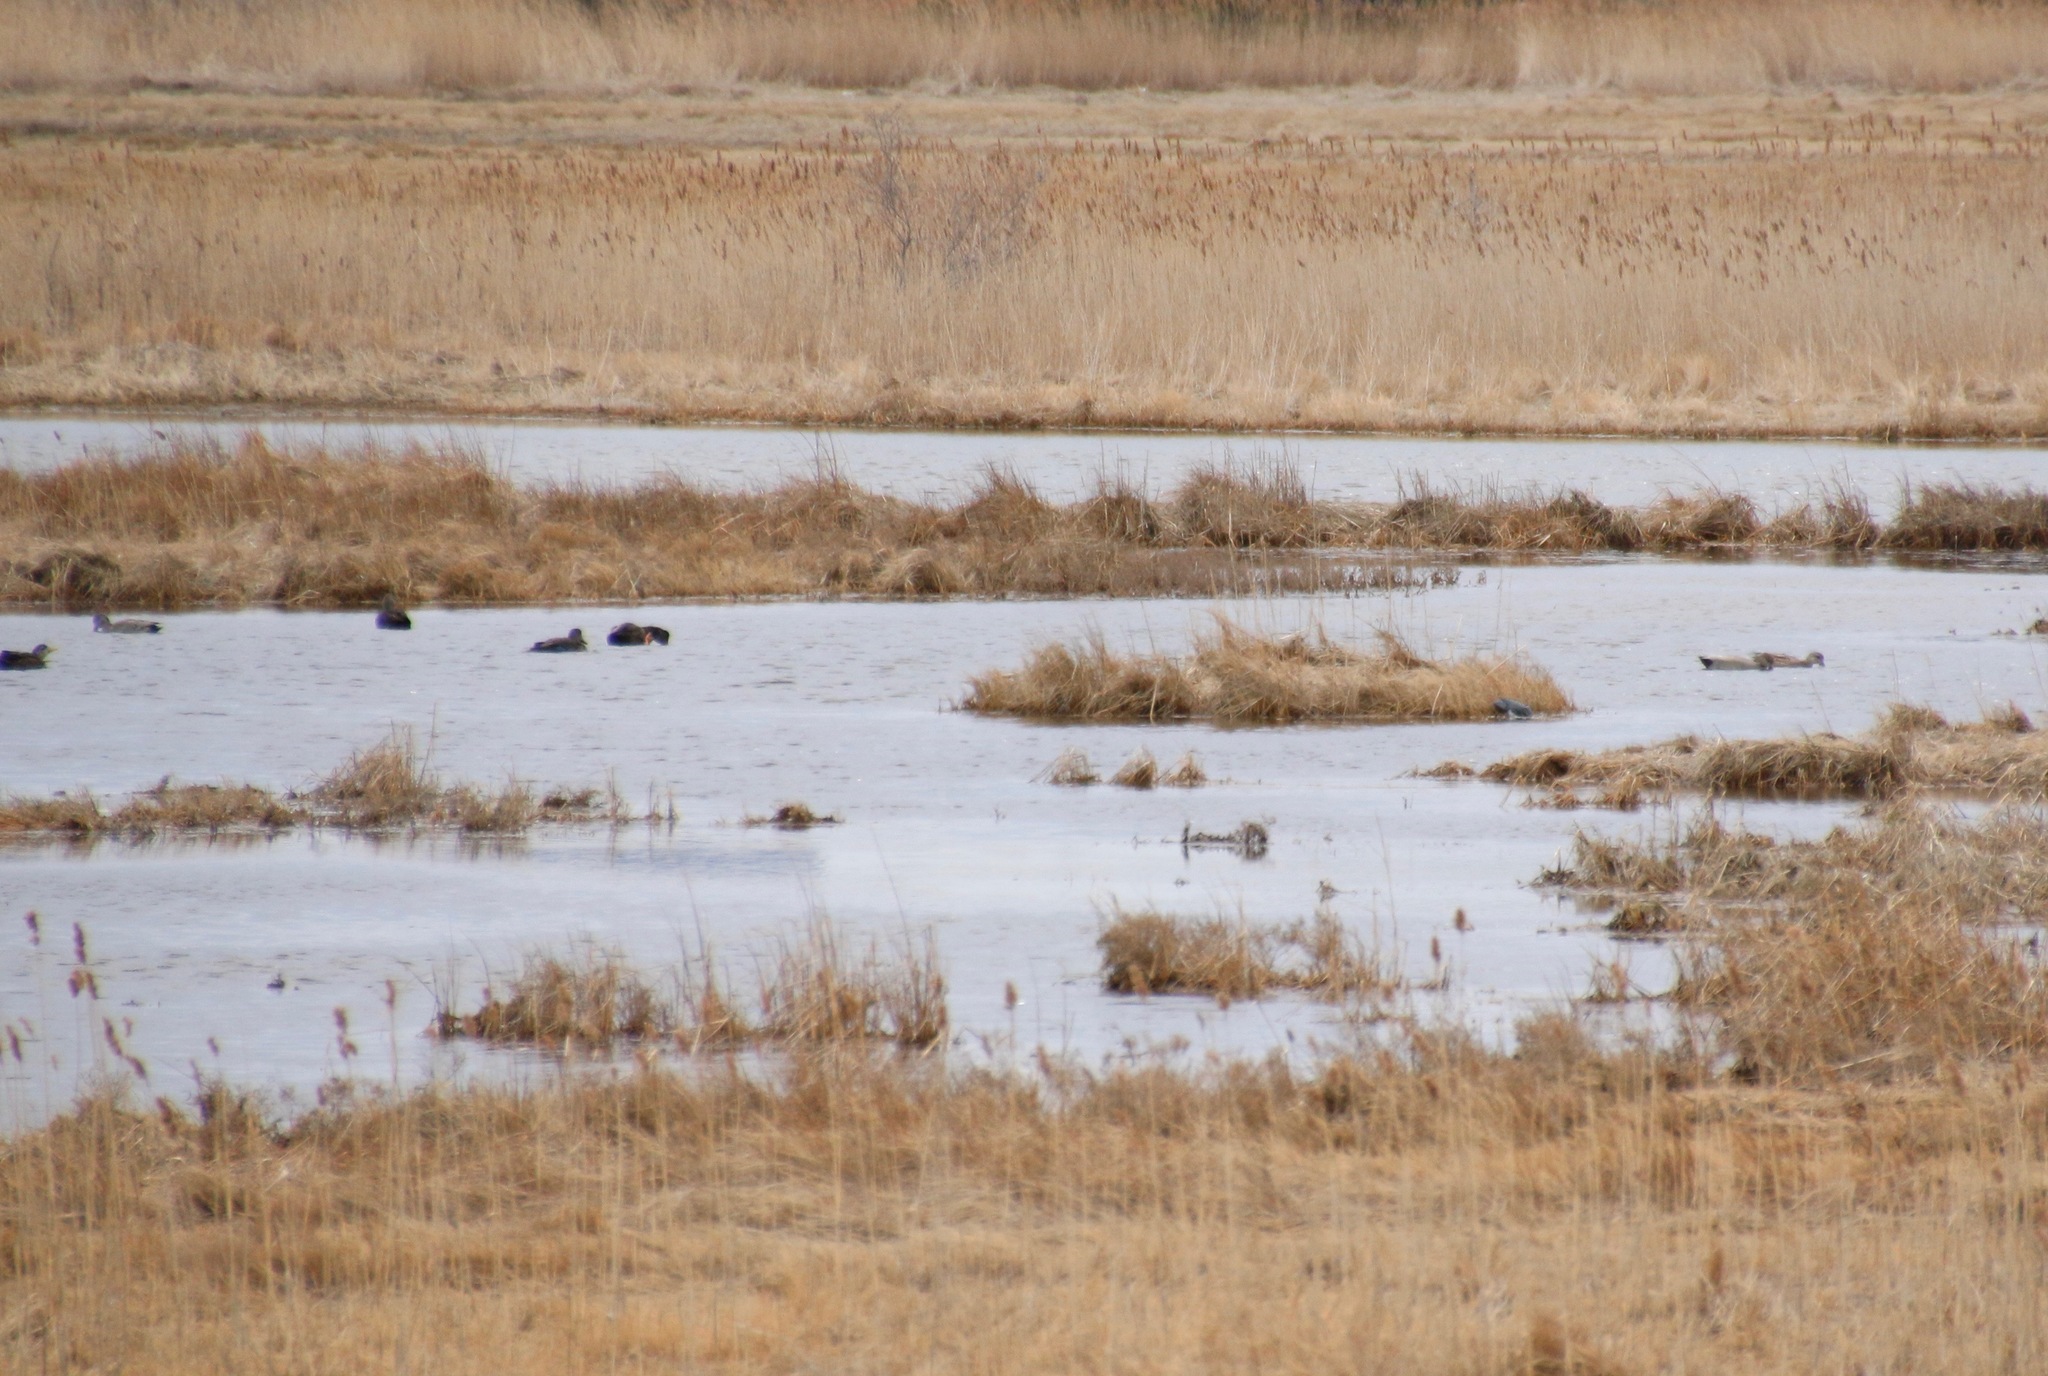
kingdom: Animalia
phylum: Chordata
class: Aves
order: Anseriformes
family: Anatidae
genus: Mareca
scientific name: Mareca strepera
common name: Gadwall
